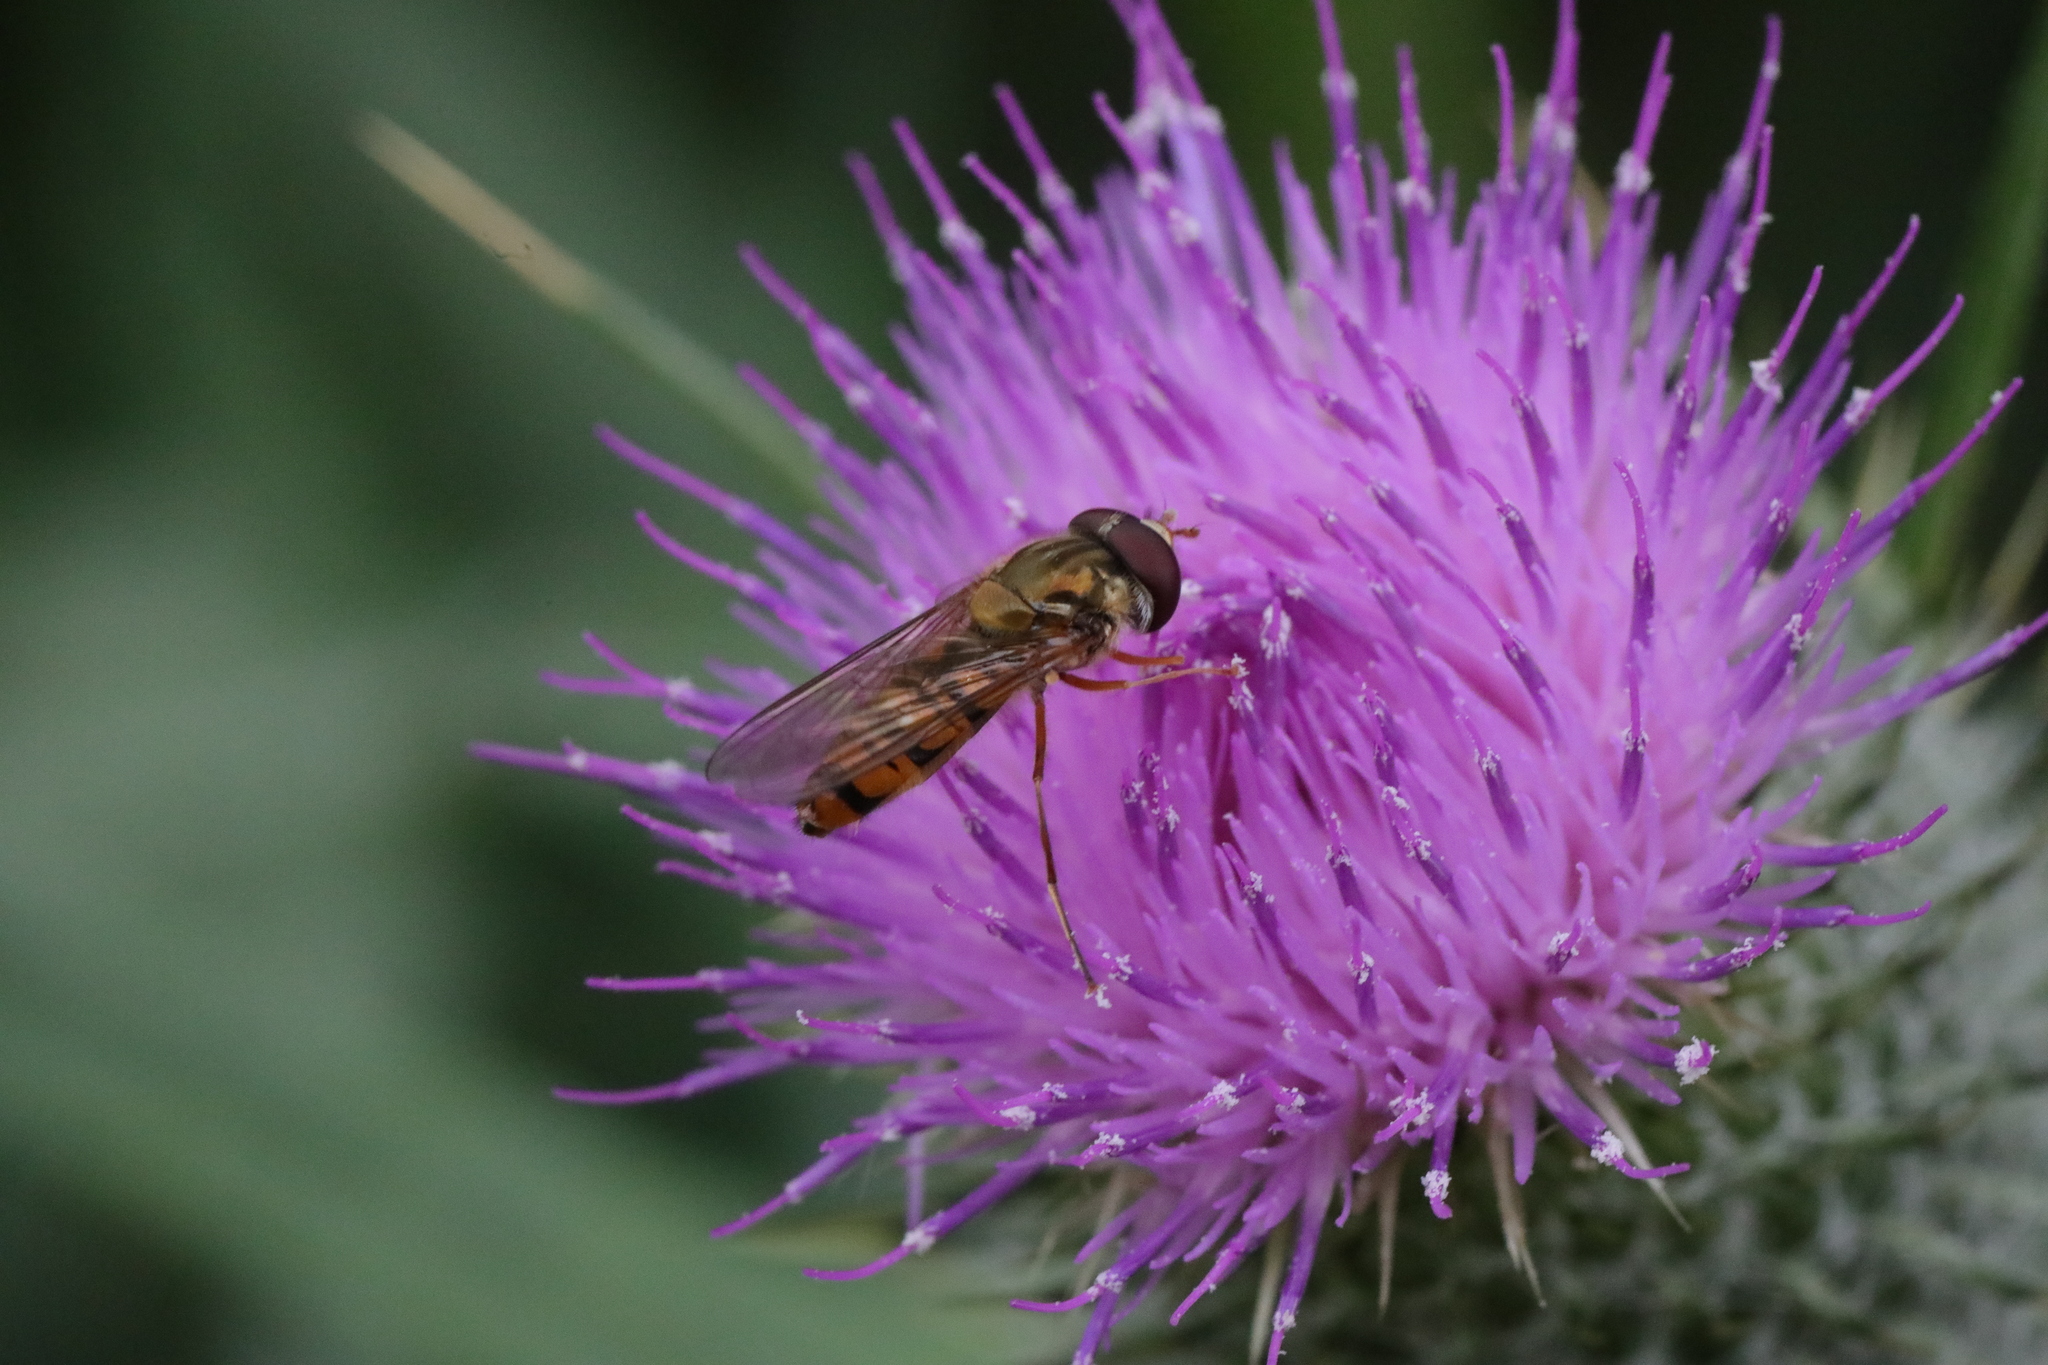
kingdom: Animalia
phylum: Arthropoda
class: Insecta
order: Diptera
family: Syrphidae
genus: Episyrphus
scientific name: Episyrphus balteatus
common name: Marmalade hoverfly
